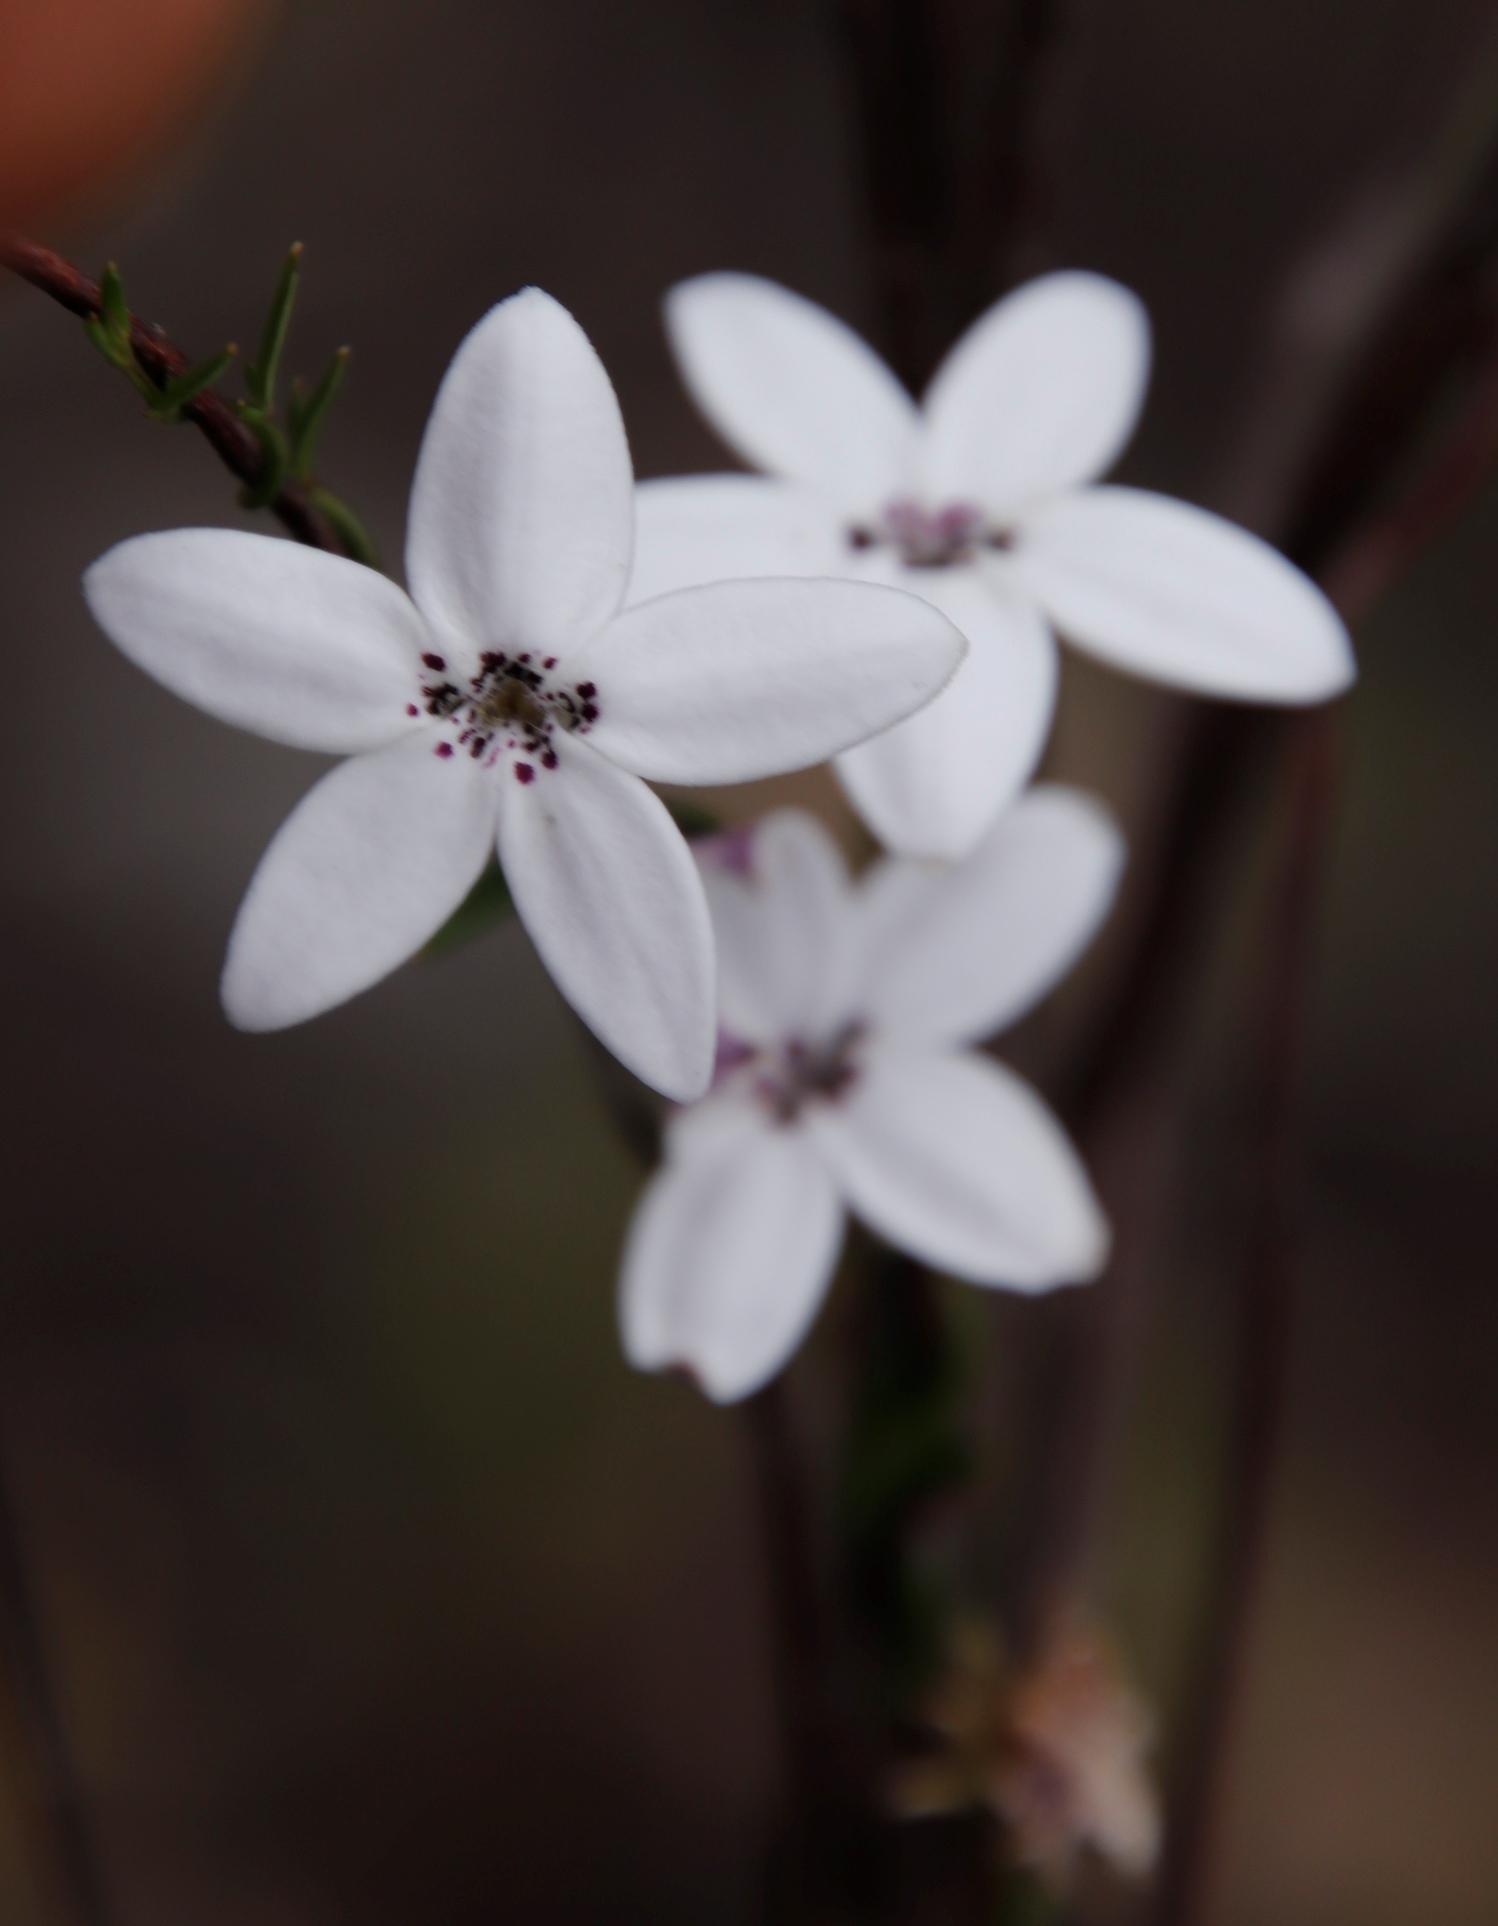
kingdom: Plantae
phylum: Tracheophyta
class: Magnoliopsida
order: Asterales
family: Campanulaceae
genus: Cyphia
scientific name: Cyphia volubilis
